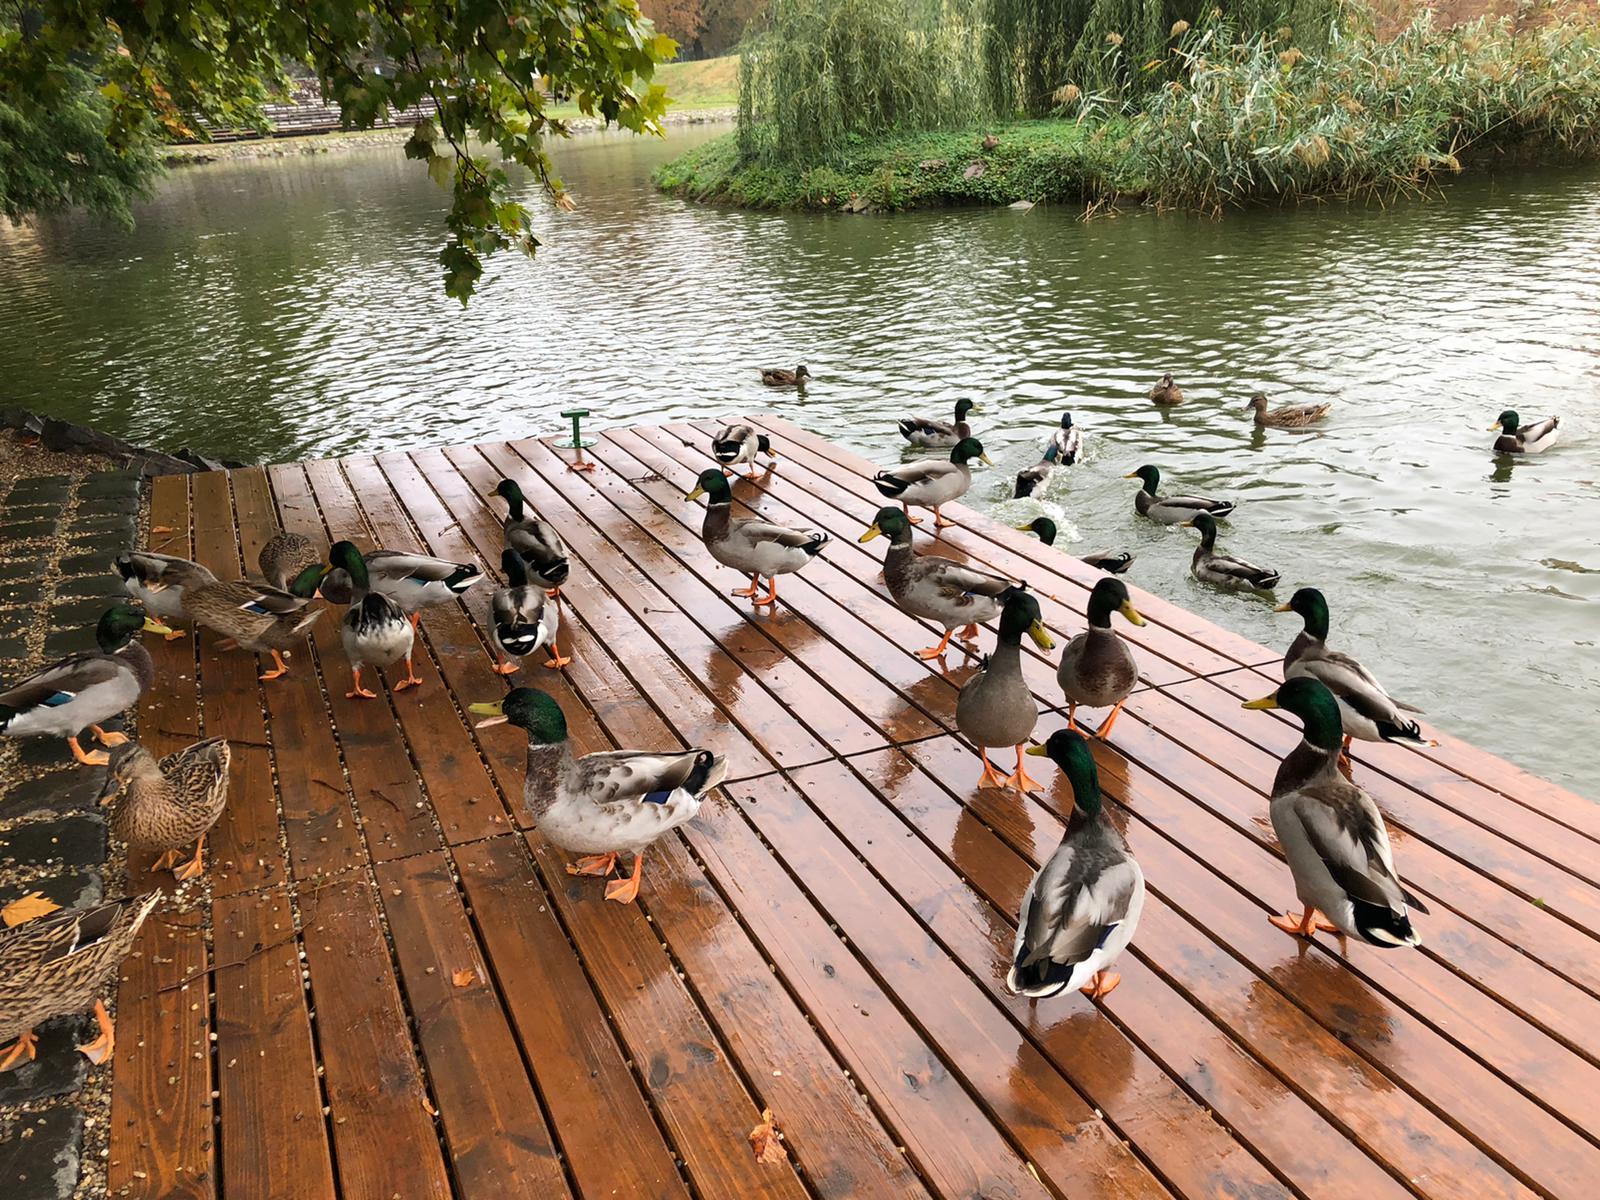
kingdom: Animalia
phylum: Chordata
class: Aves
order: Anseriformes
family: Anatidae
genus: Anas
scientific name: Anas platyrhynchos
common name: Mallard
